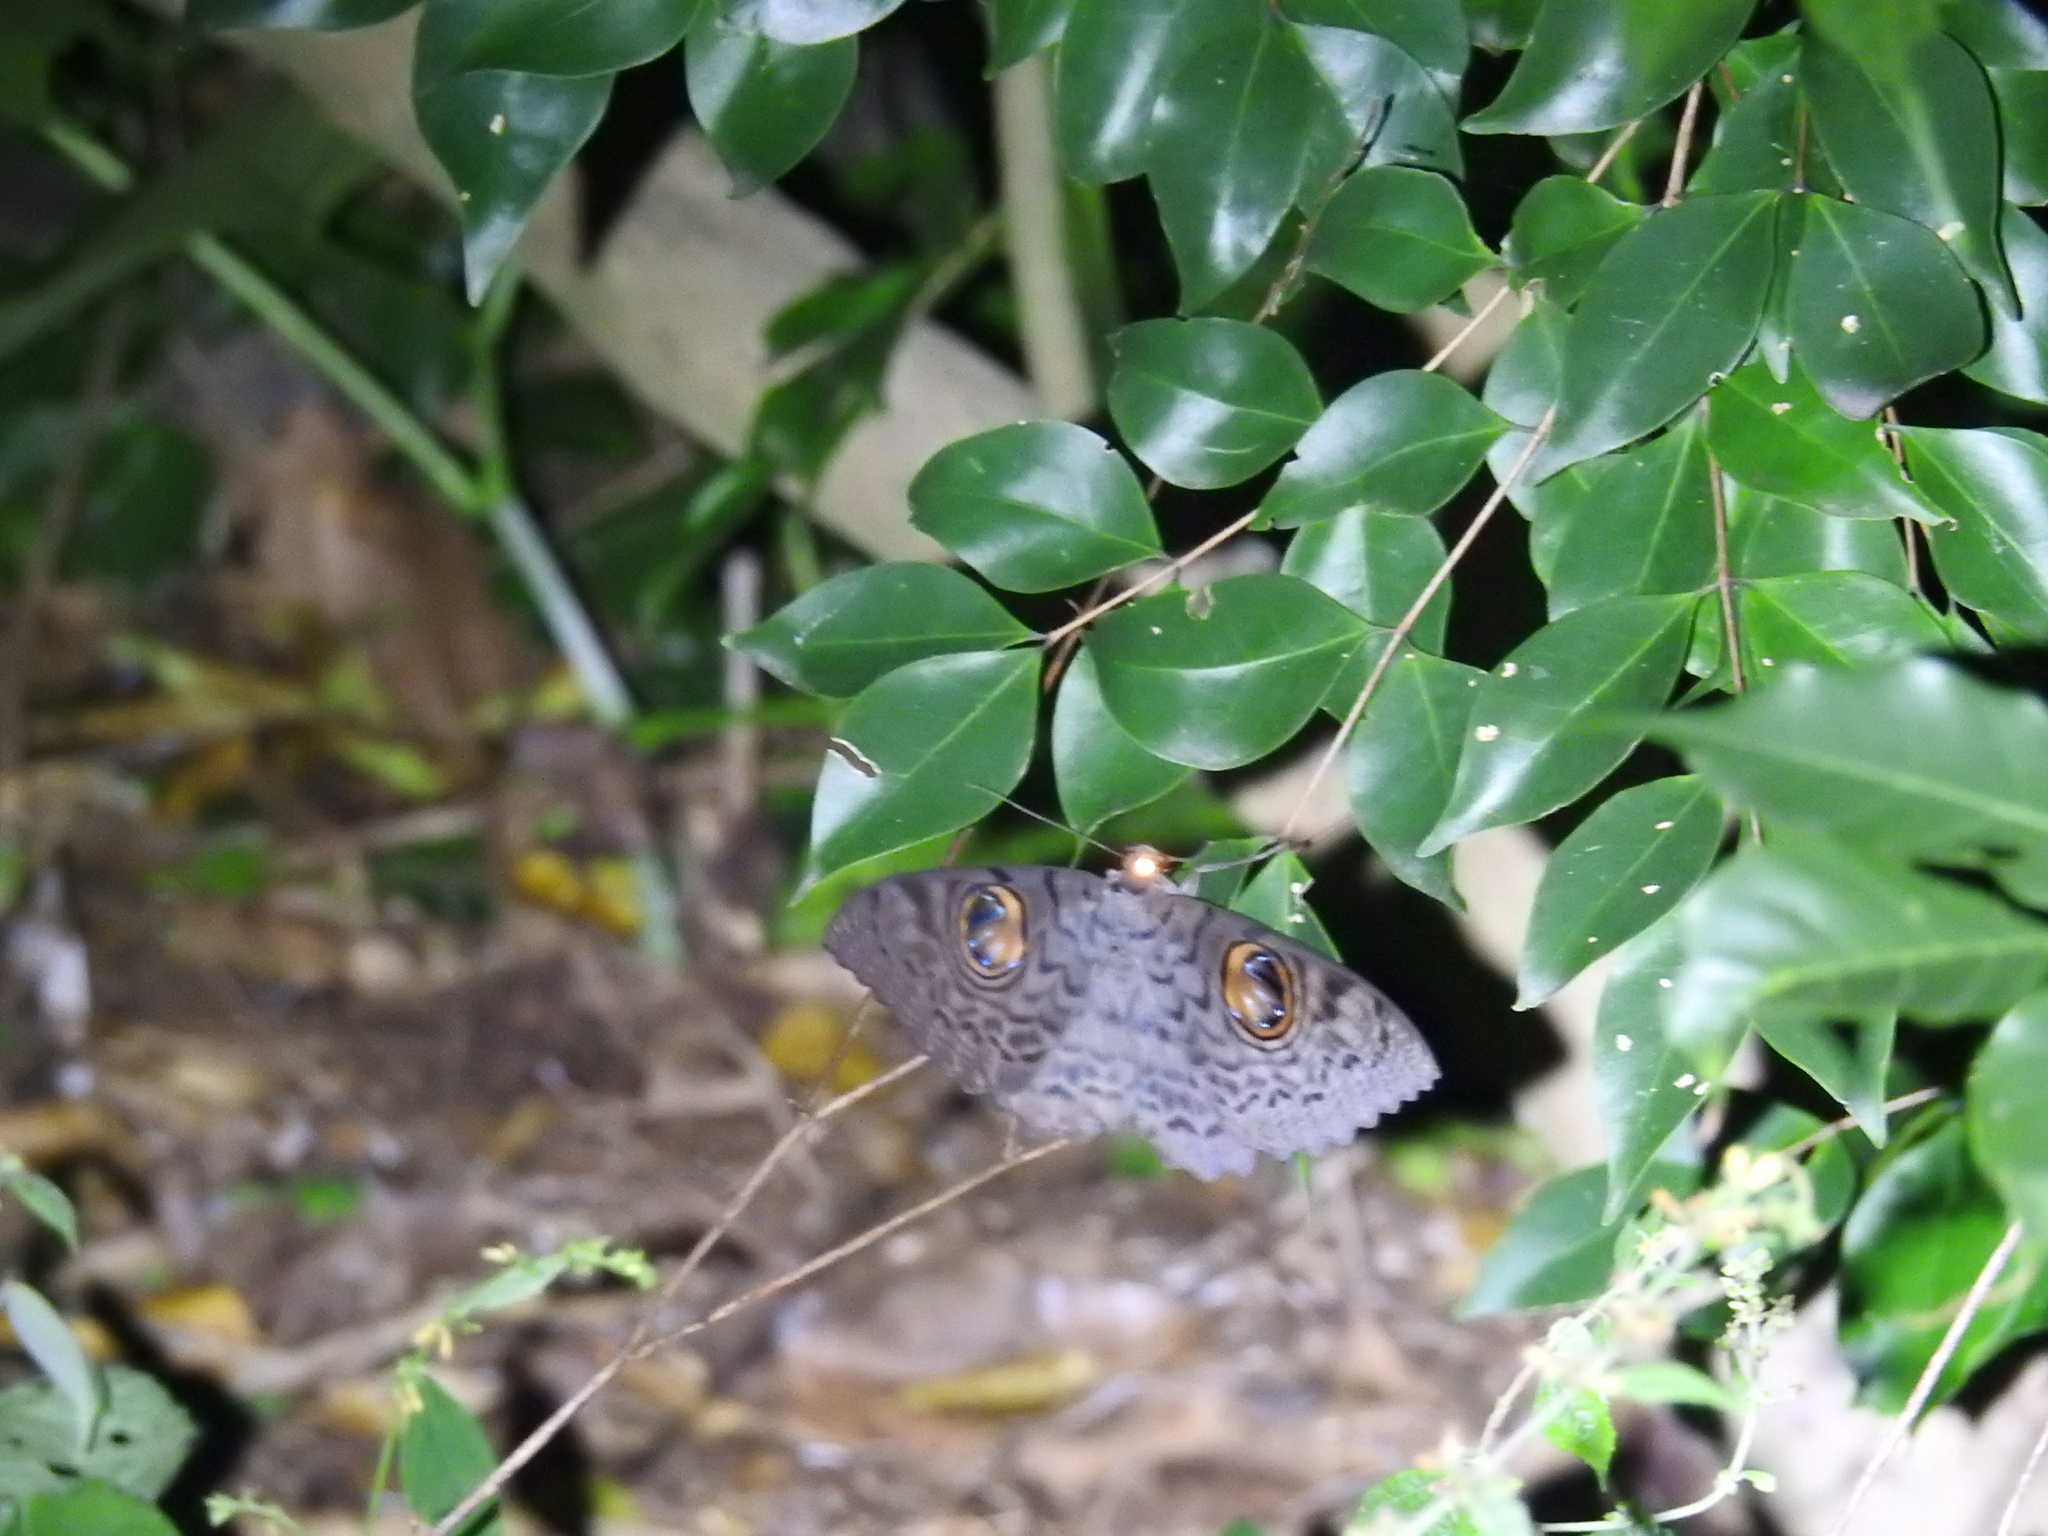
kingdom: Animalia
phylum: Arthropoda
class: Insecta
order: Lepidoptera
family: Erebidae
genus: Erebus
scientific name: Erebus macrops
